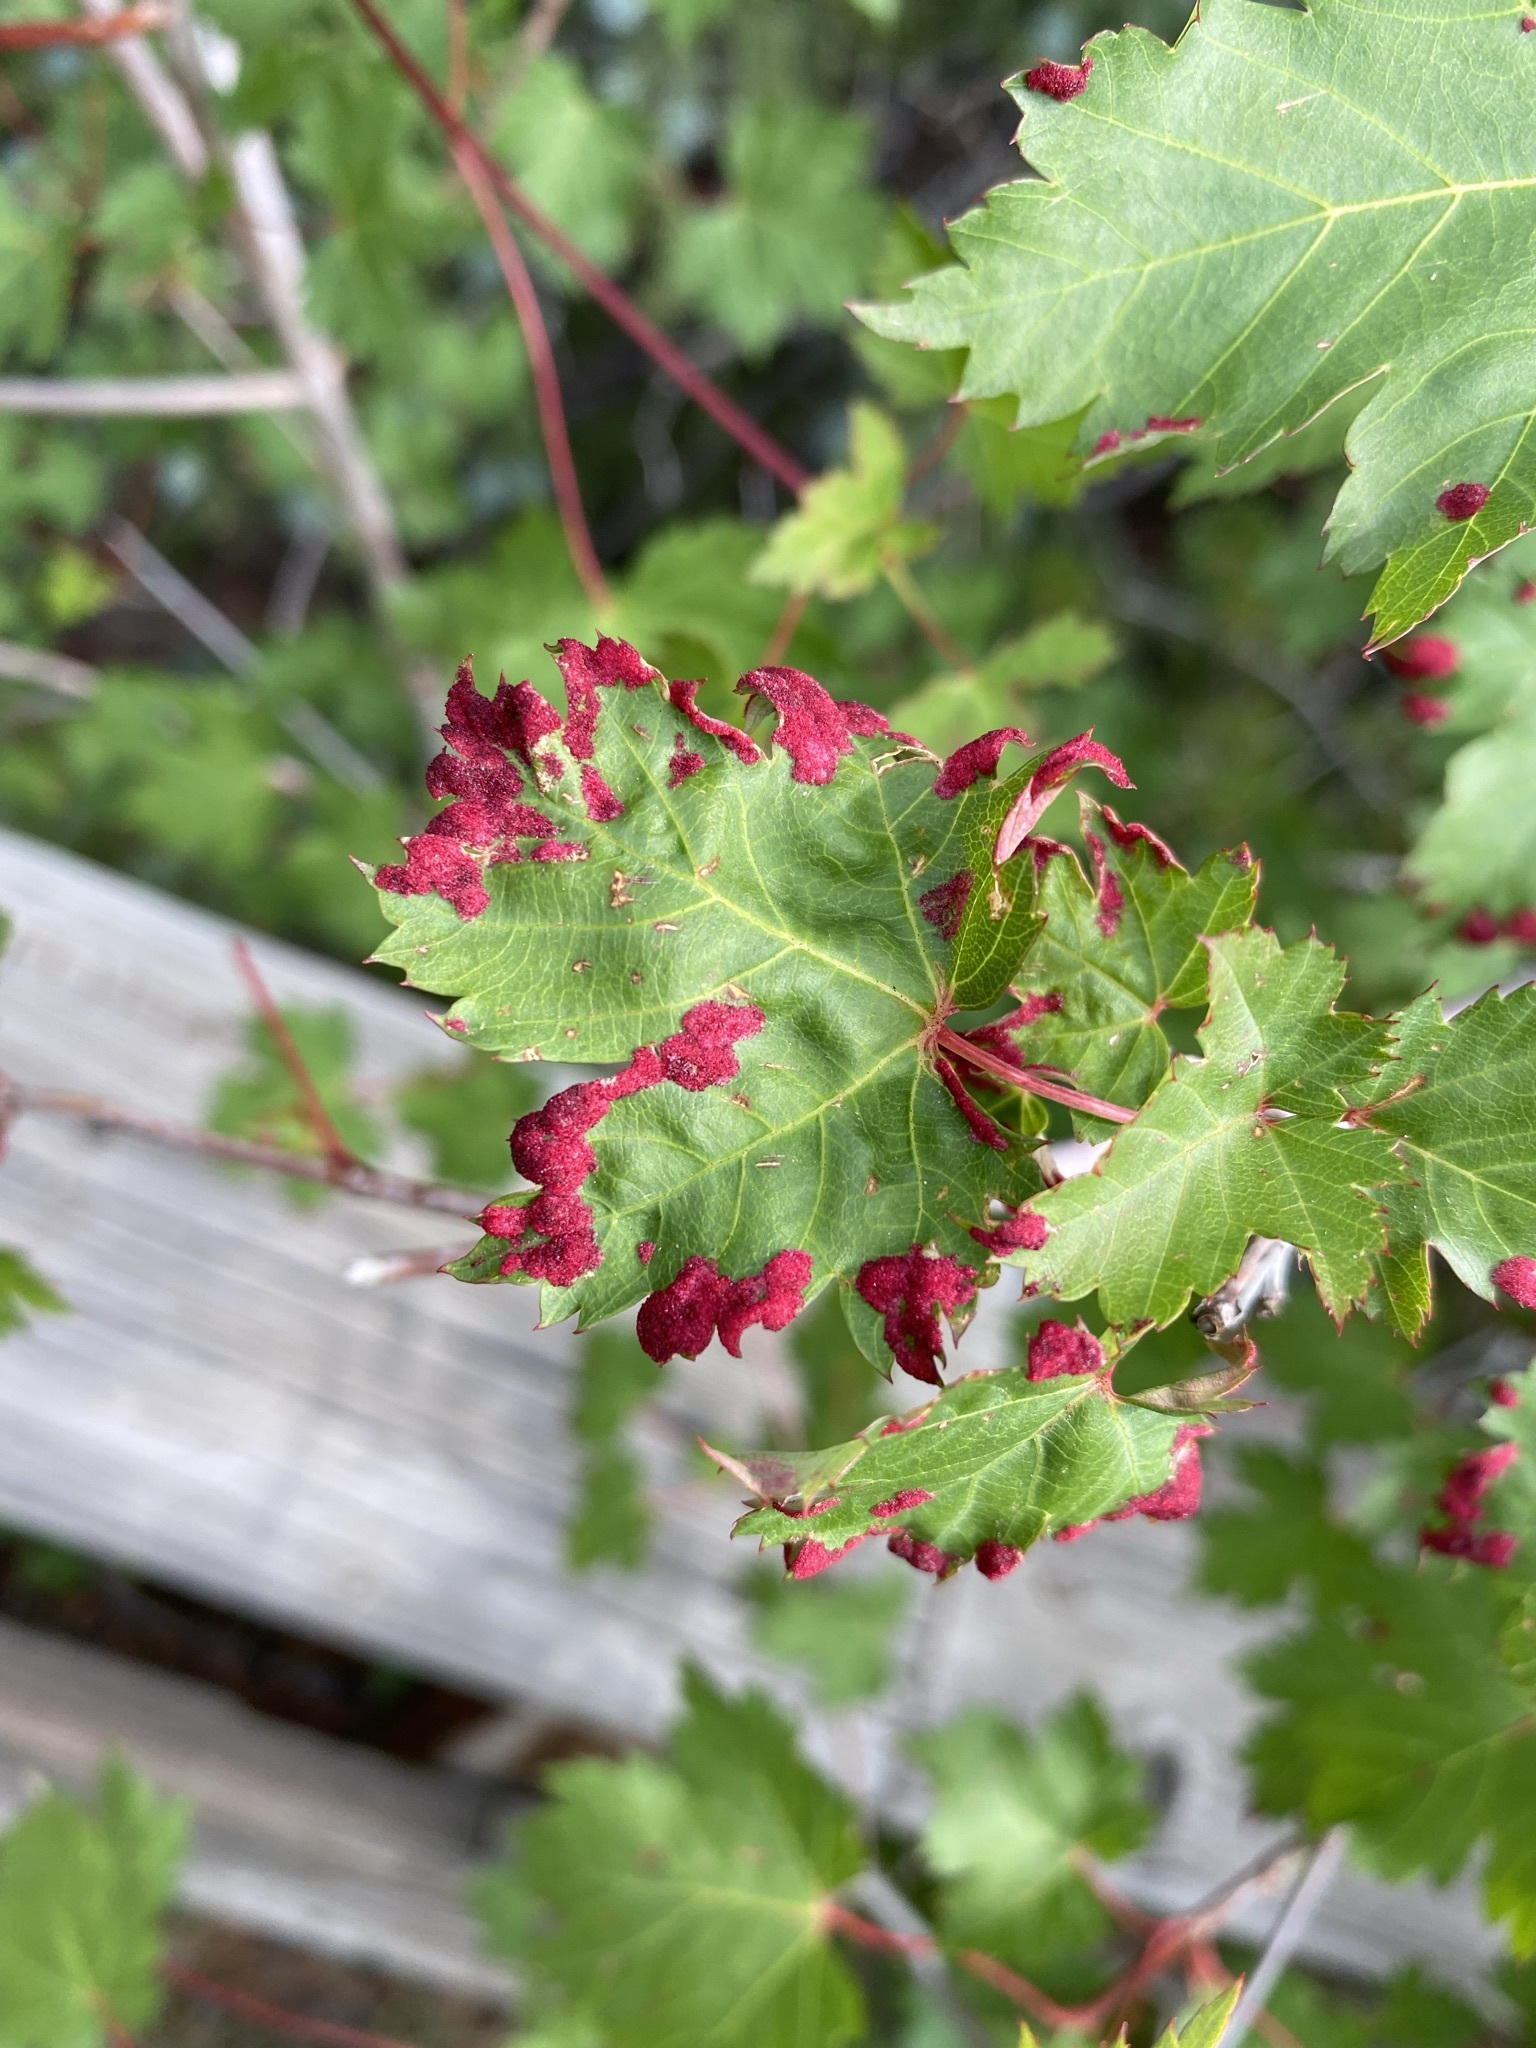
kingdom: Animalia
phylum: Arthropoda
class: Arachnida
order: Trombidiformes
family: Eriophyidae
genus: Aceria
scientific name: Aceria
